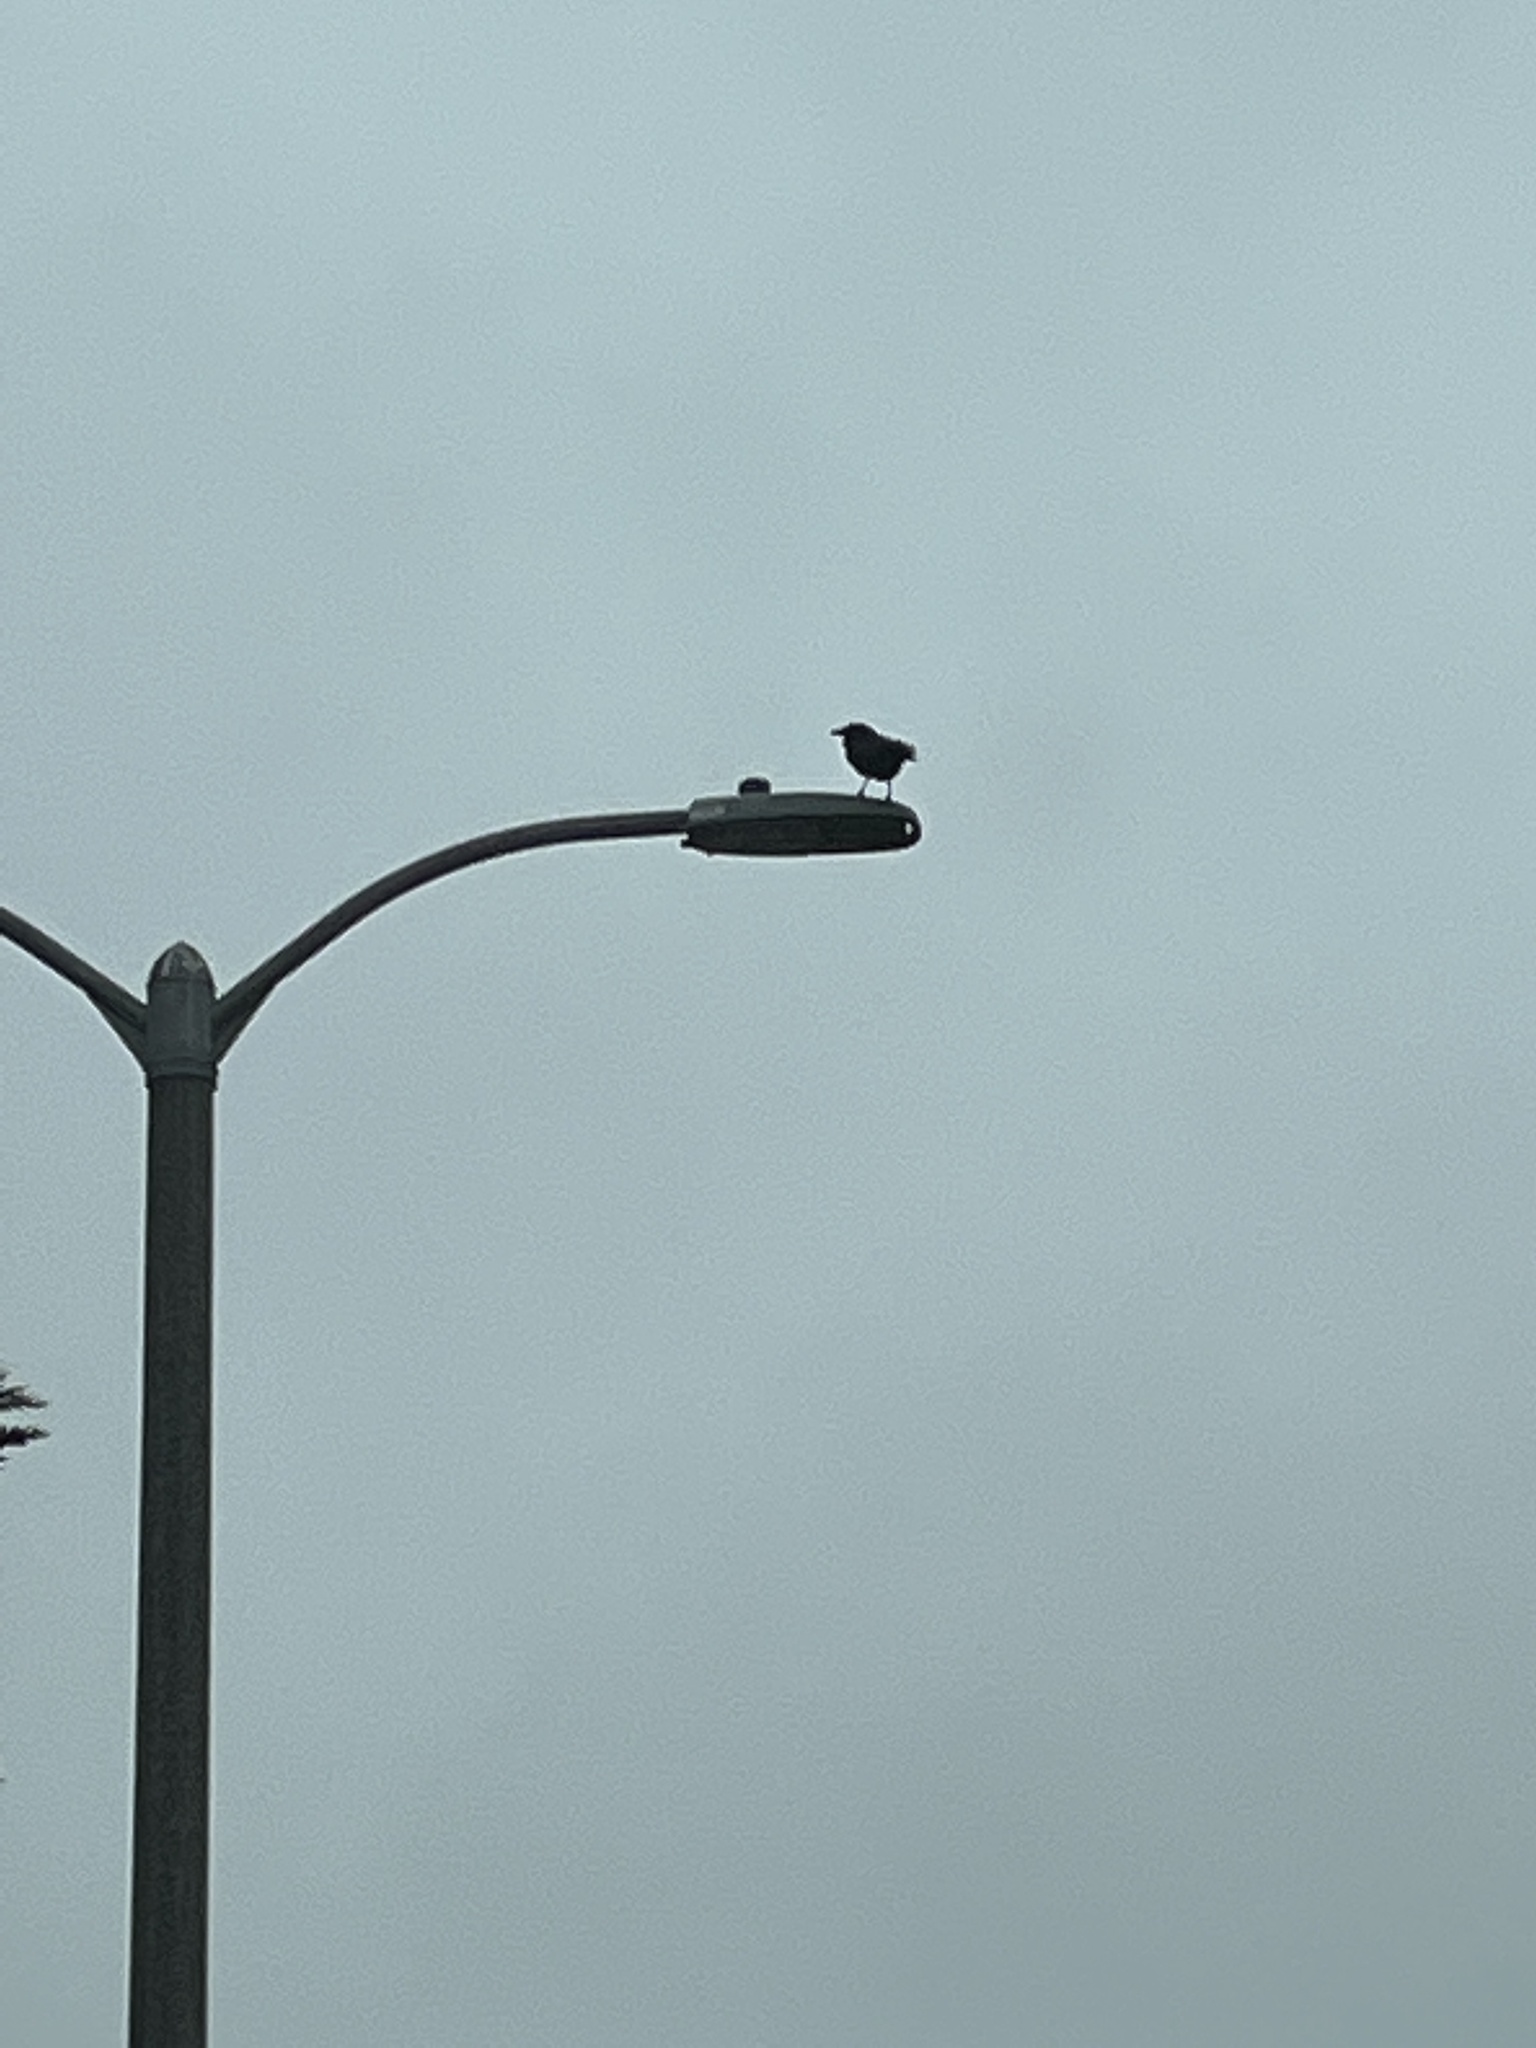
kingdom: Animalia
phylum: Chordata
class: Aves
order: Passeriformes
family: Corvidae
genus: Corvus
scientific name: Corvus brachyrhynchos
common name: American crow
